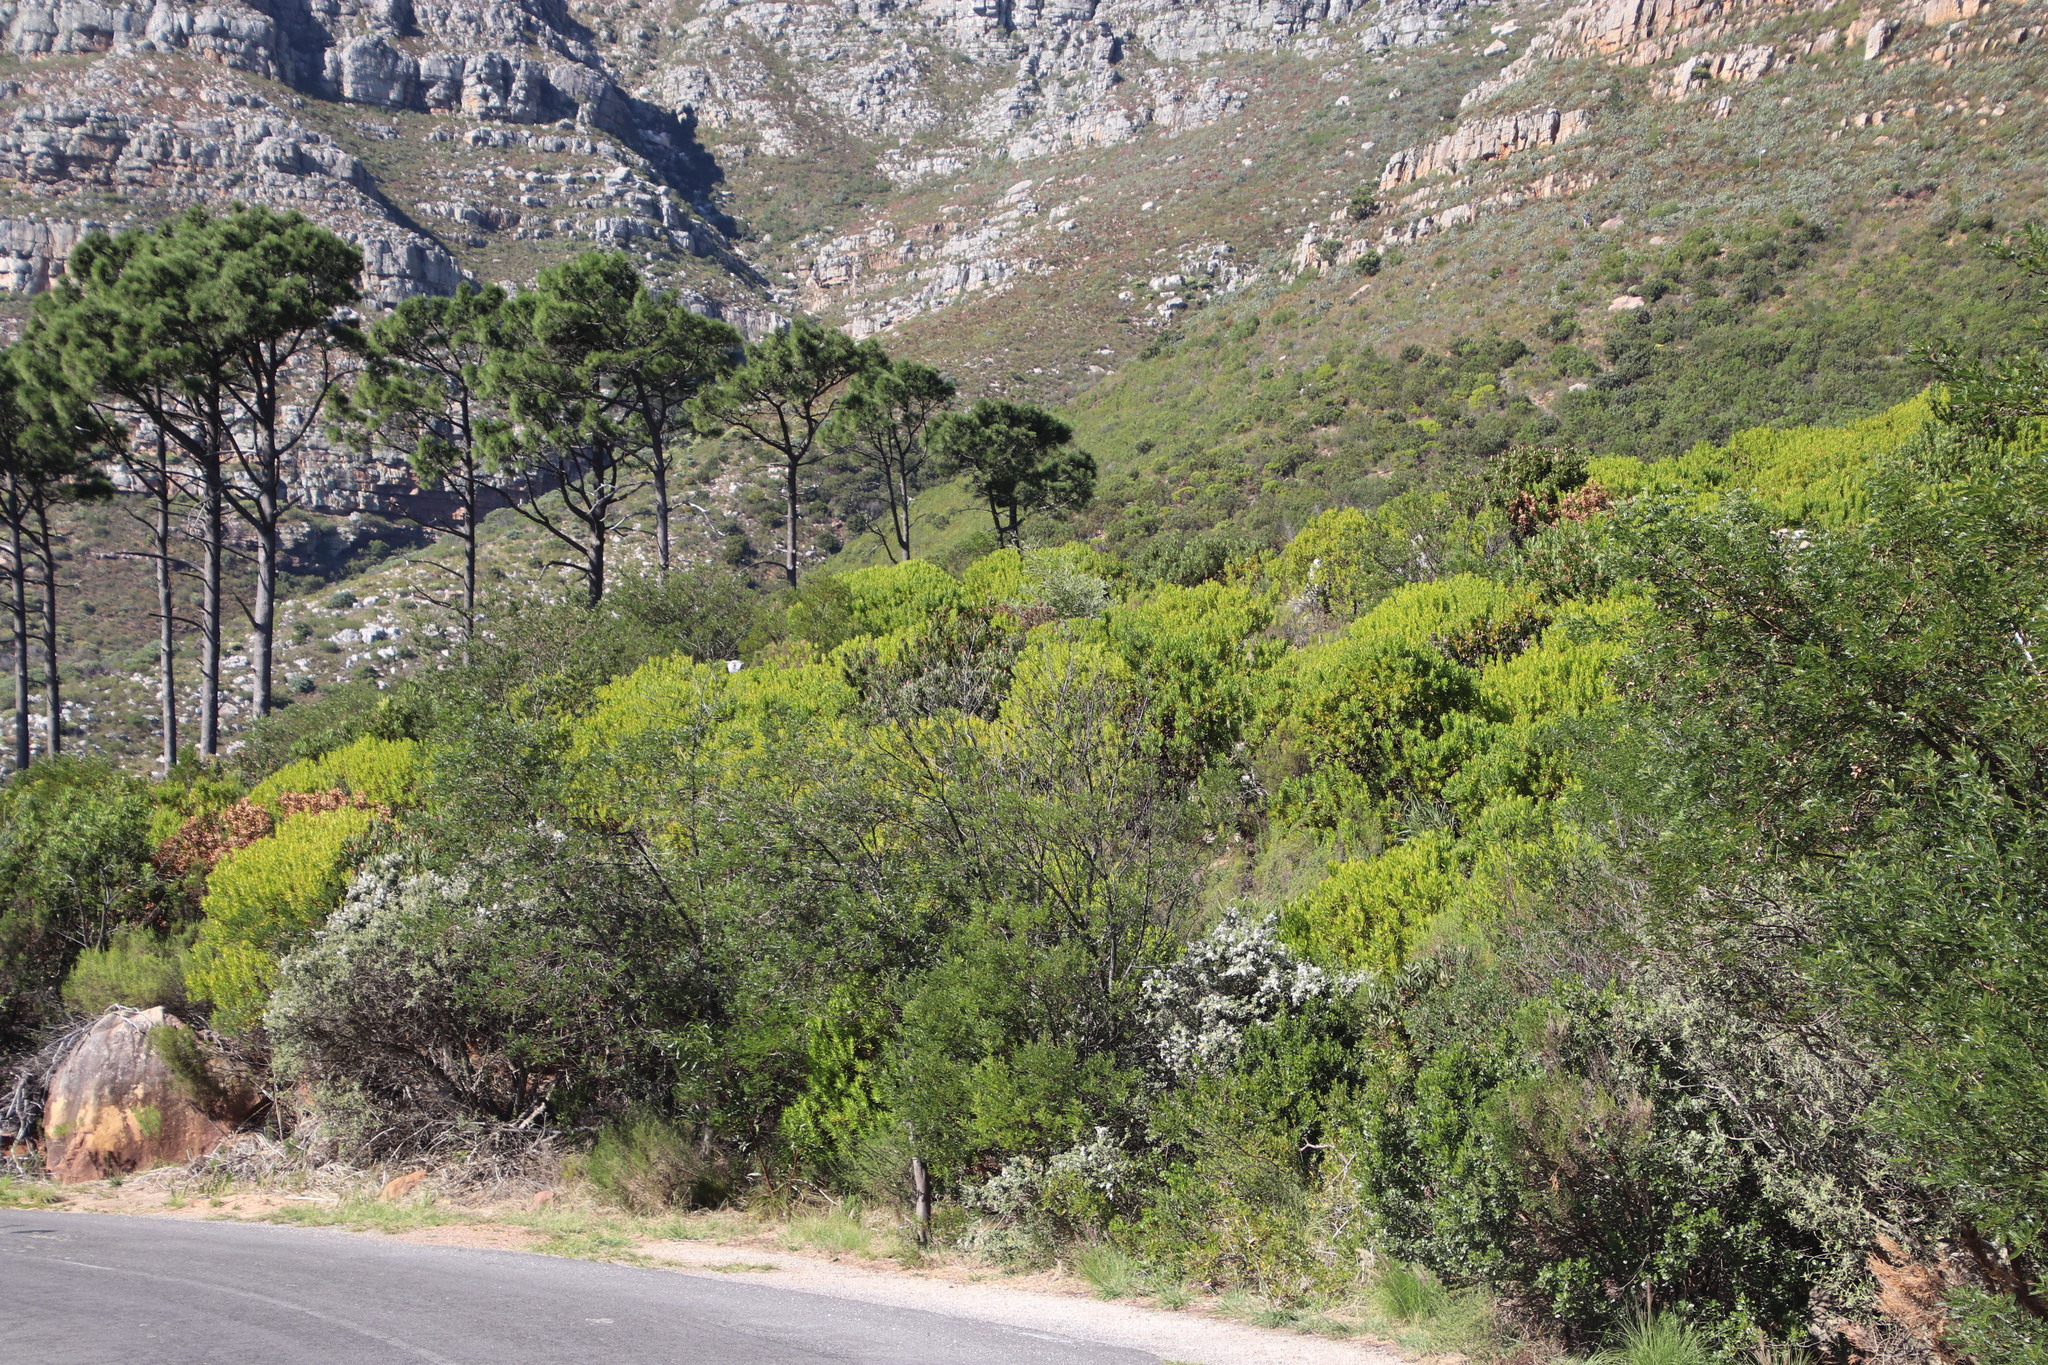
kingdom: Plantae
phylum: Tracheophyta
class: Magnoliopsida
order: Proteales
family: Proteaceae
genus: Leucadendron
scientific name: Leucadendron laureolum
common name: Golden sunshinebush
